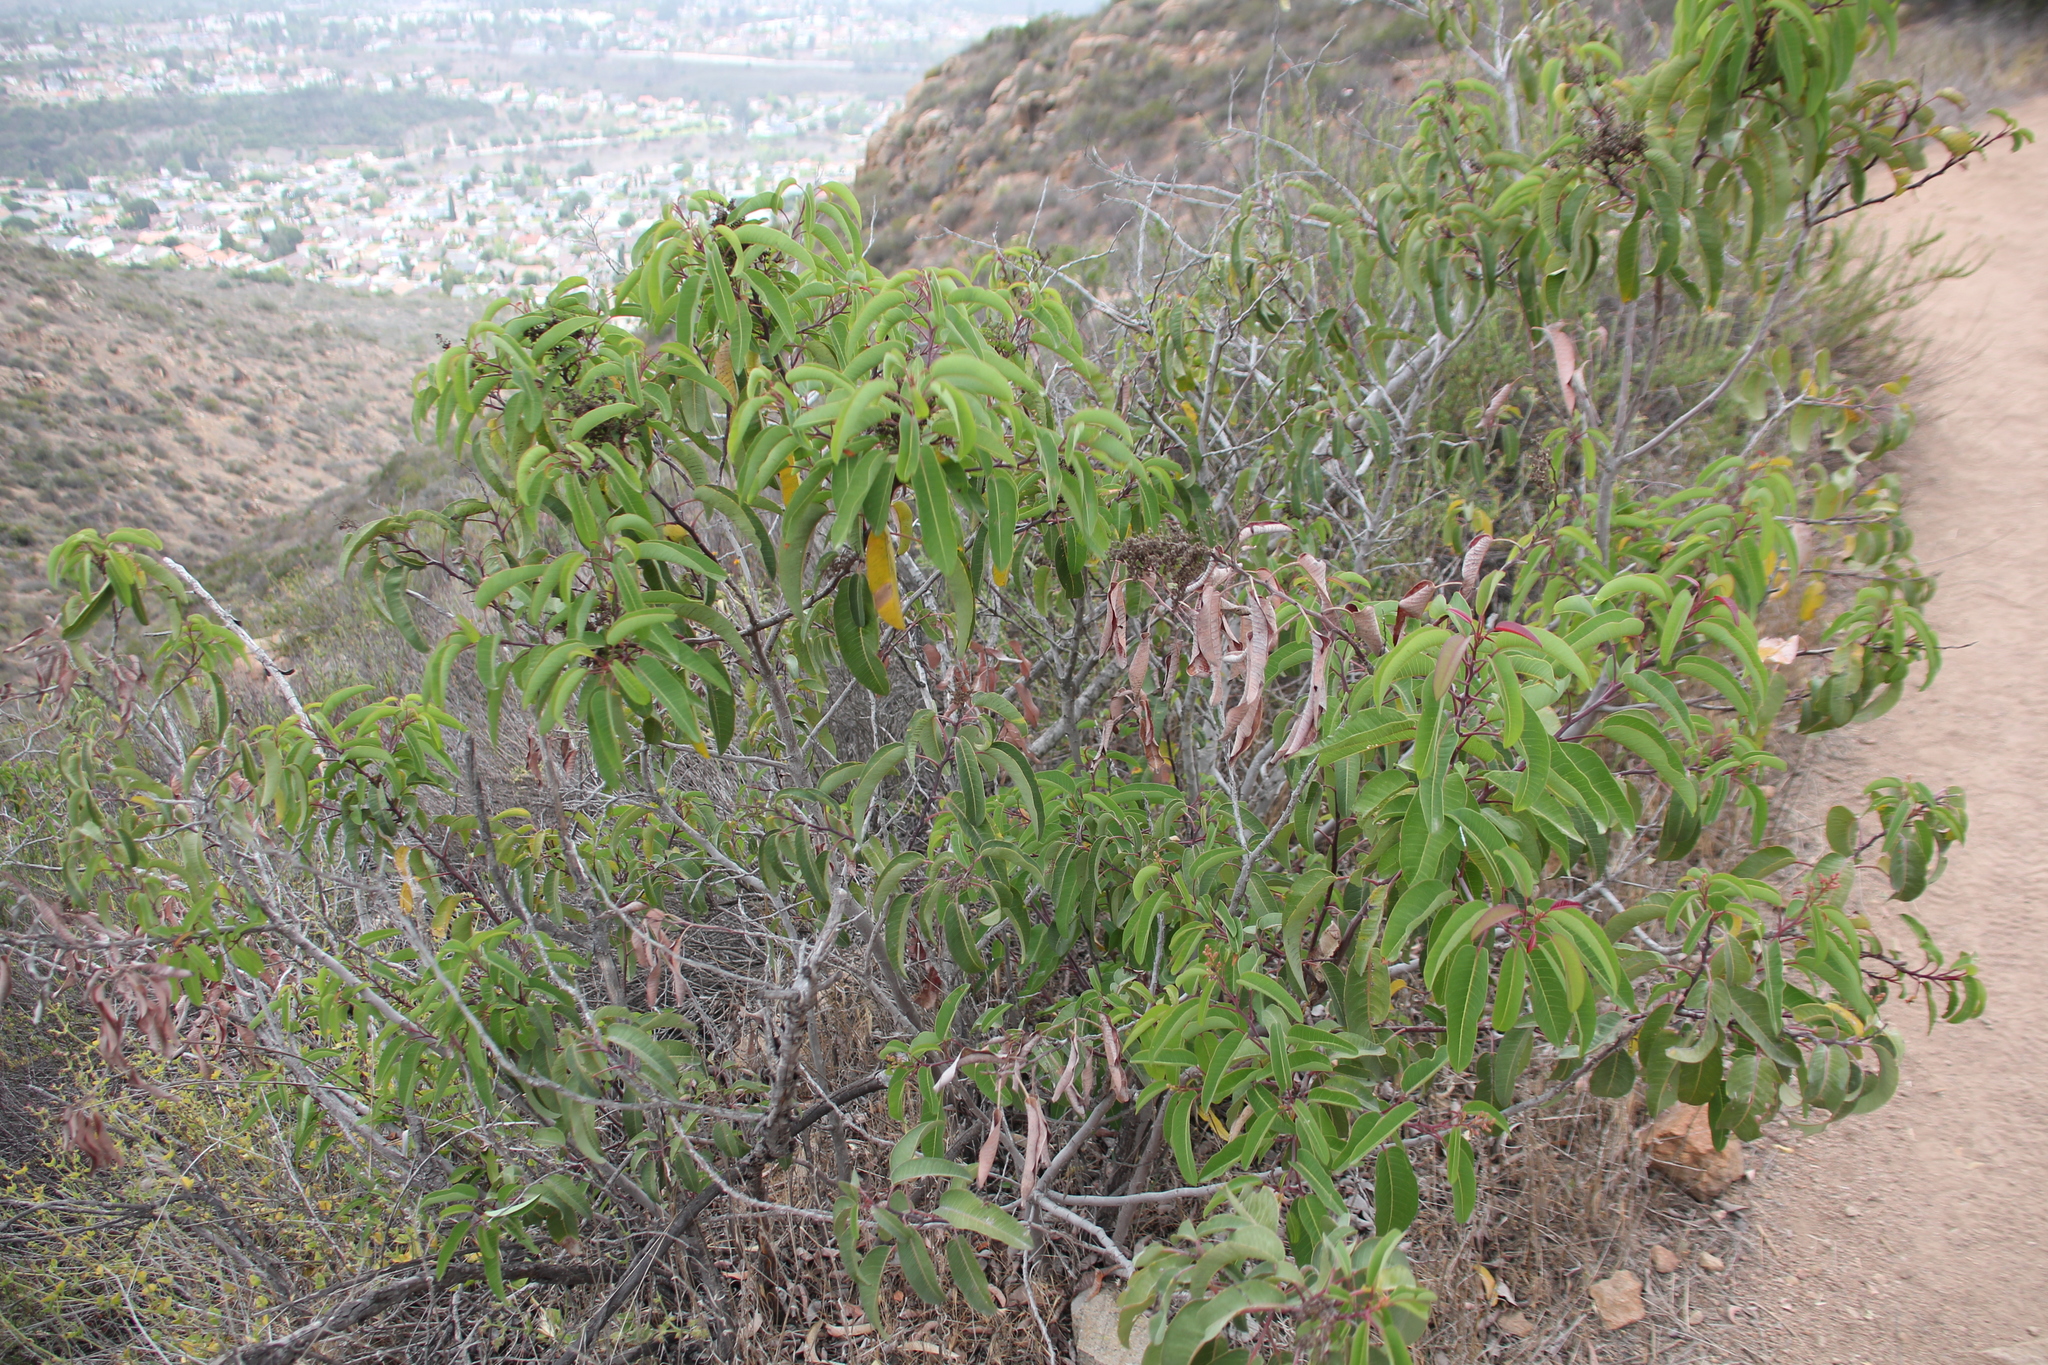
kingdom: Plantae
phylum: Tracheophyta
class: Magnoliopsida
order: Sapindales
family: Anacardiaceae
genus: Malosma
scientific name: Malosma laurina
